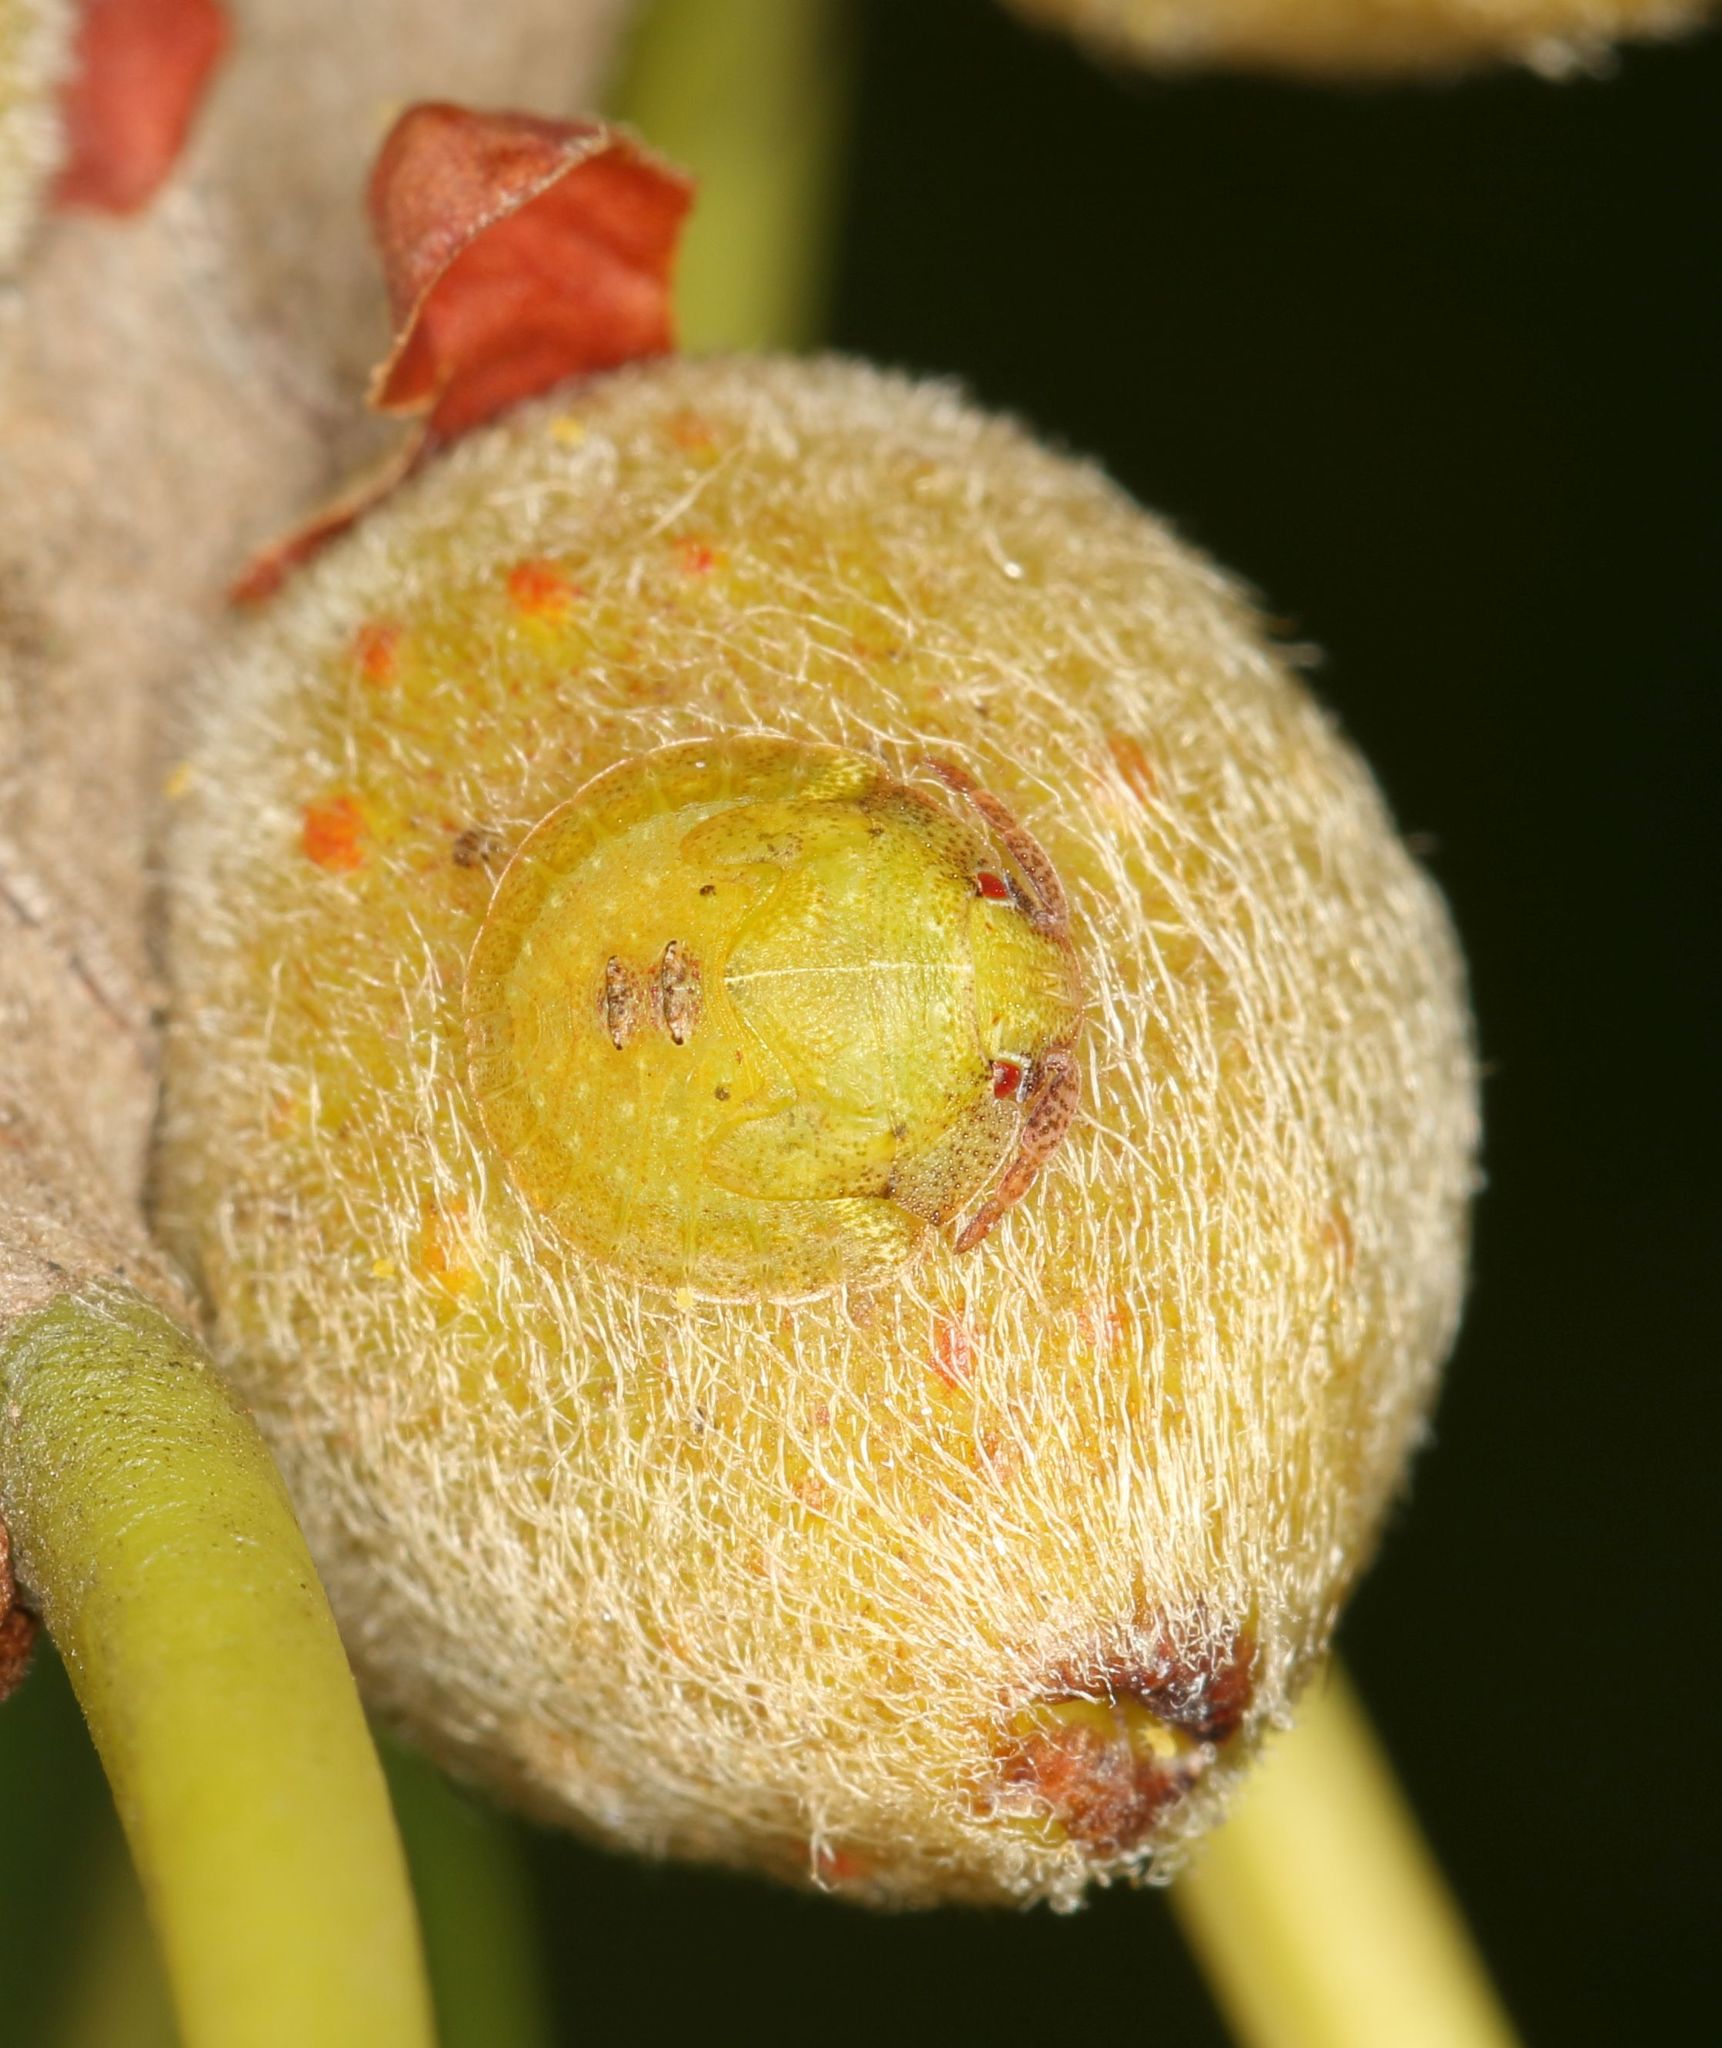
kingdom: Animalia
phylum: Arthropoda
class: Insecta
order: Hemiptera
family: Acanthosomatidae
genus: Uhlunga
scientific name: Uhlunga typica
